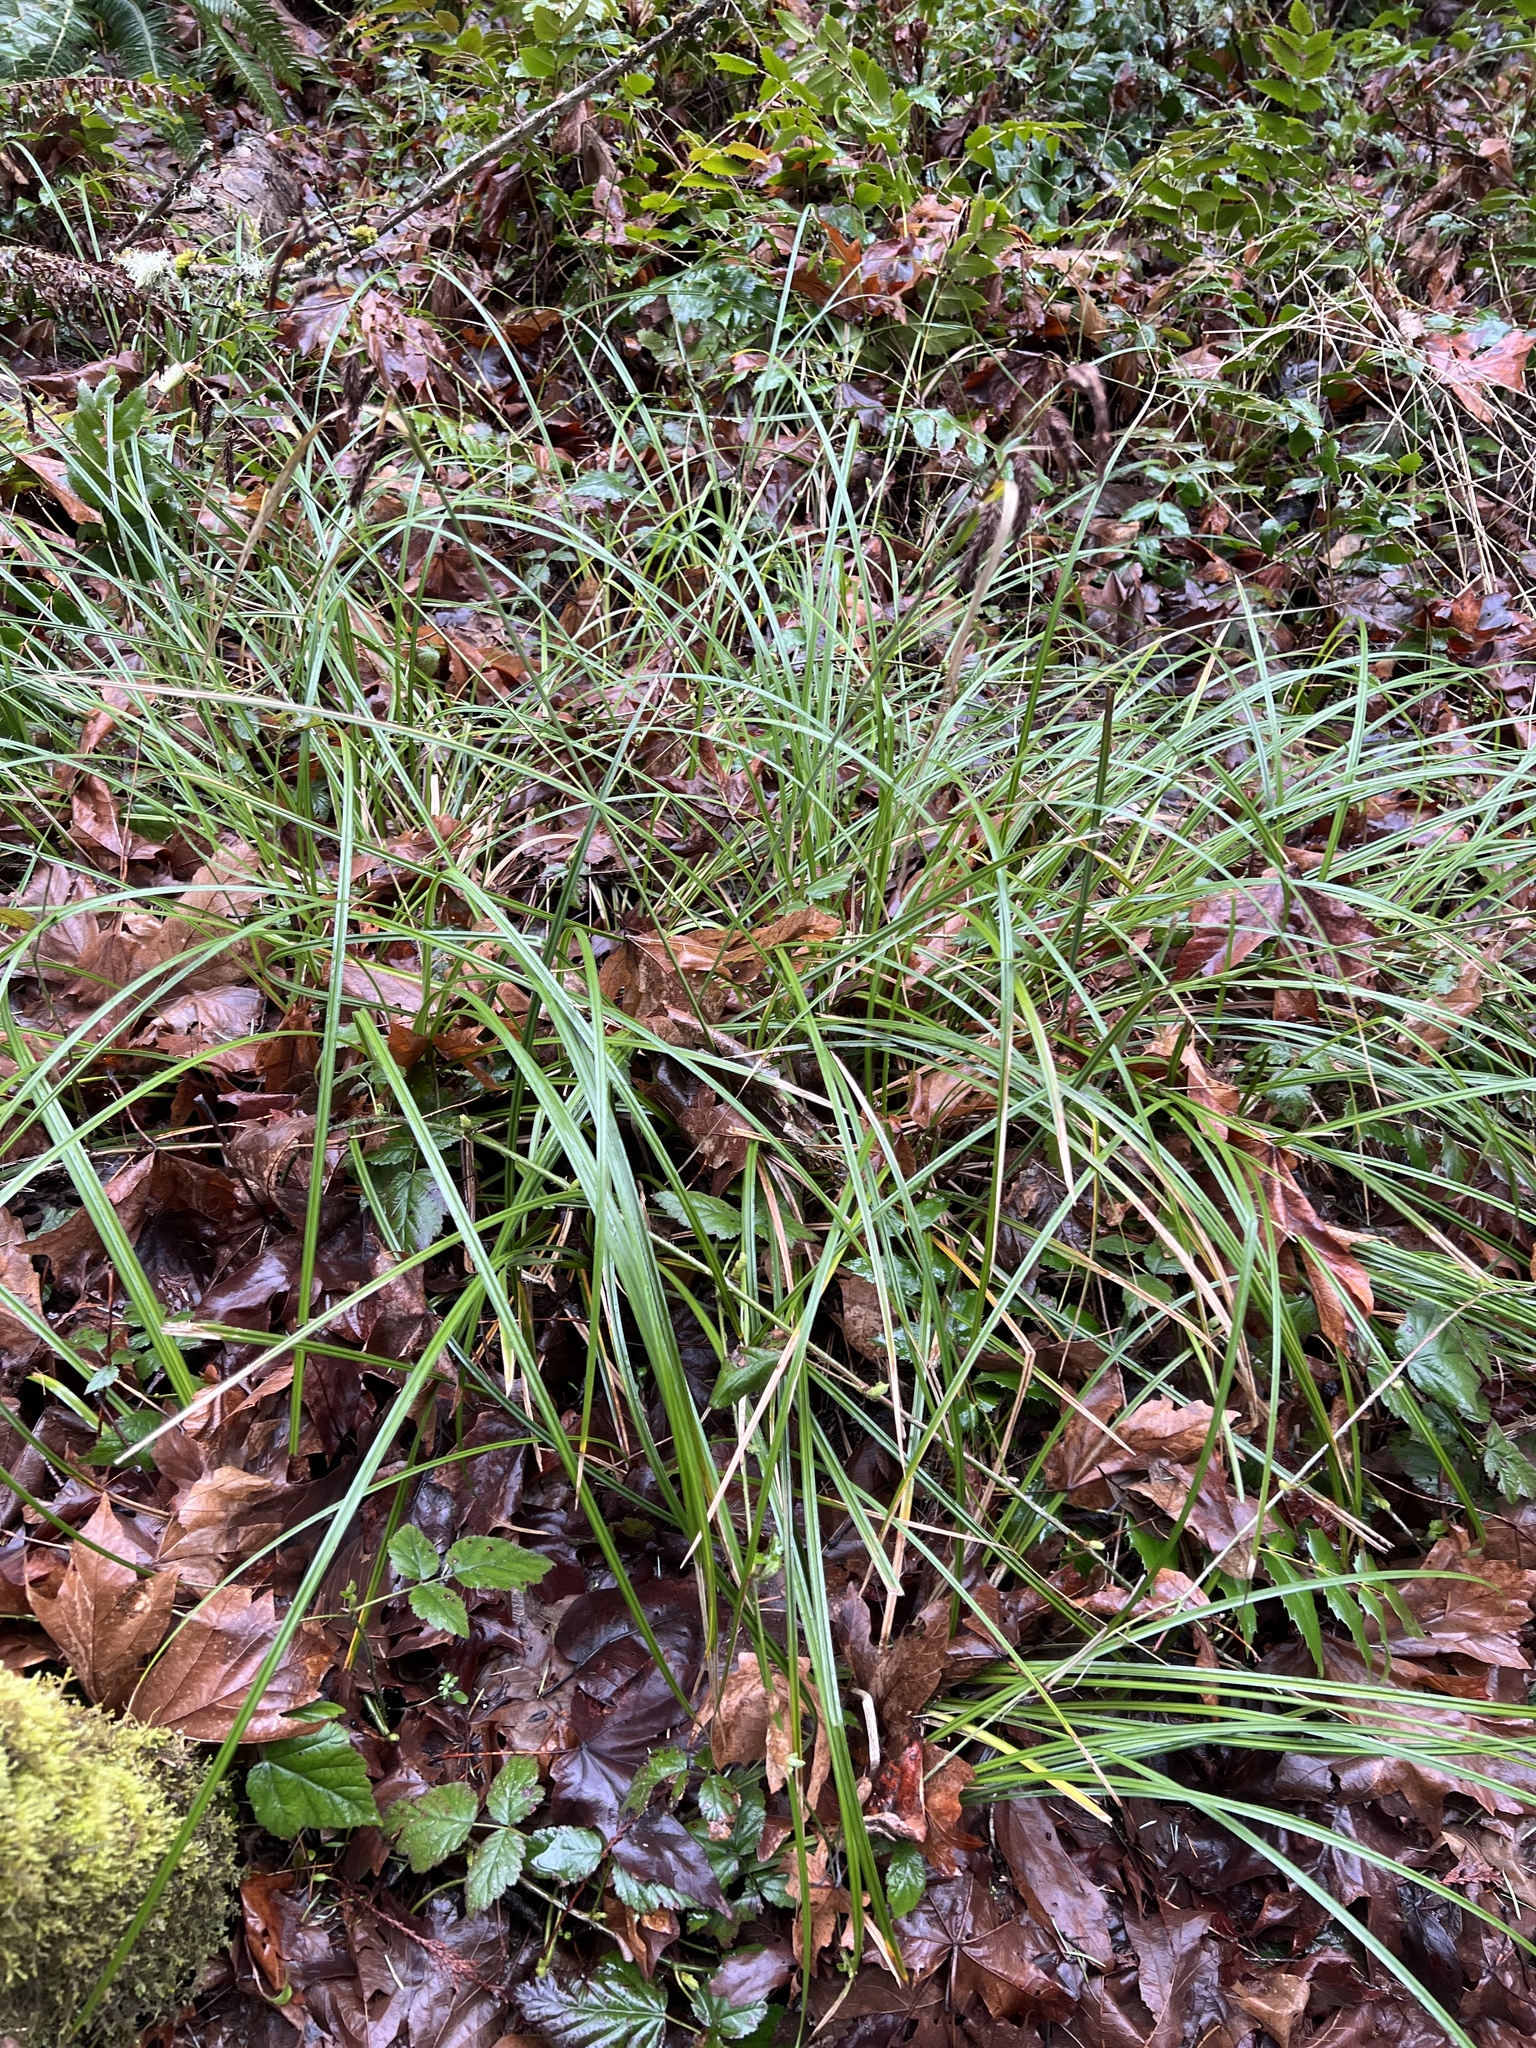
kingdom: Plantae
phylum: Tracheophyta
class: Liliopsida
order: Poales
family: Cyperaceae
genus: Carex
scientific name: Carex obnupta
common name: Slough sedge
